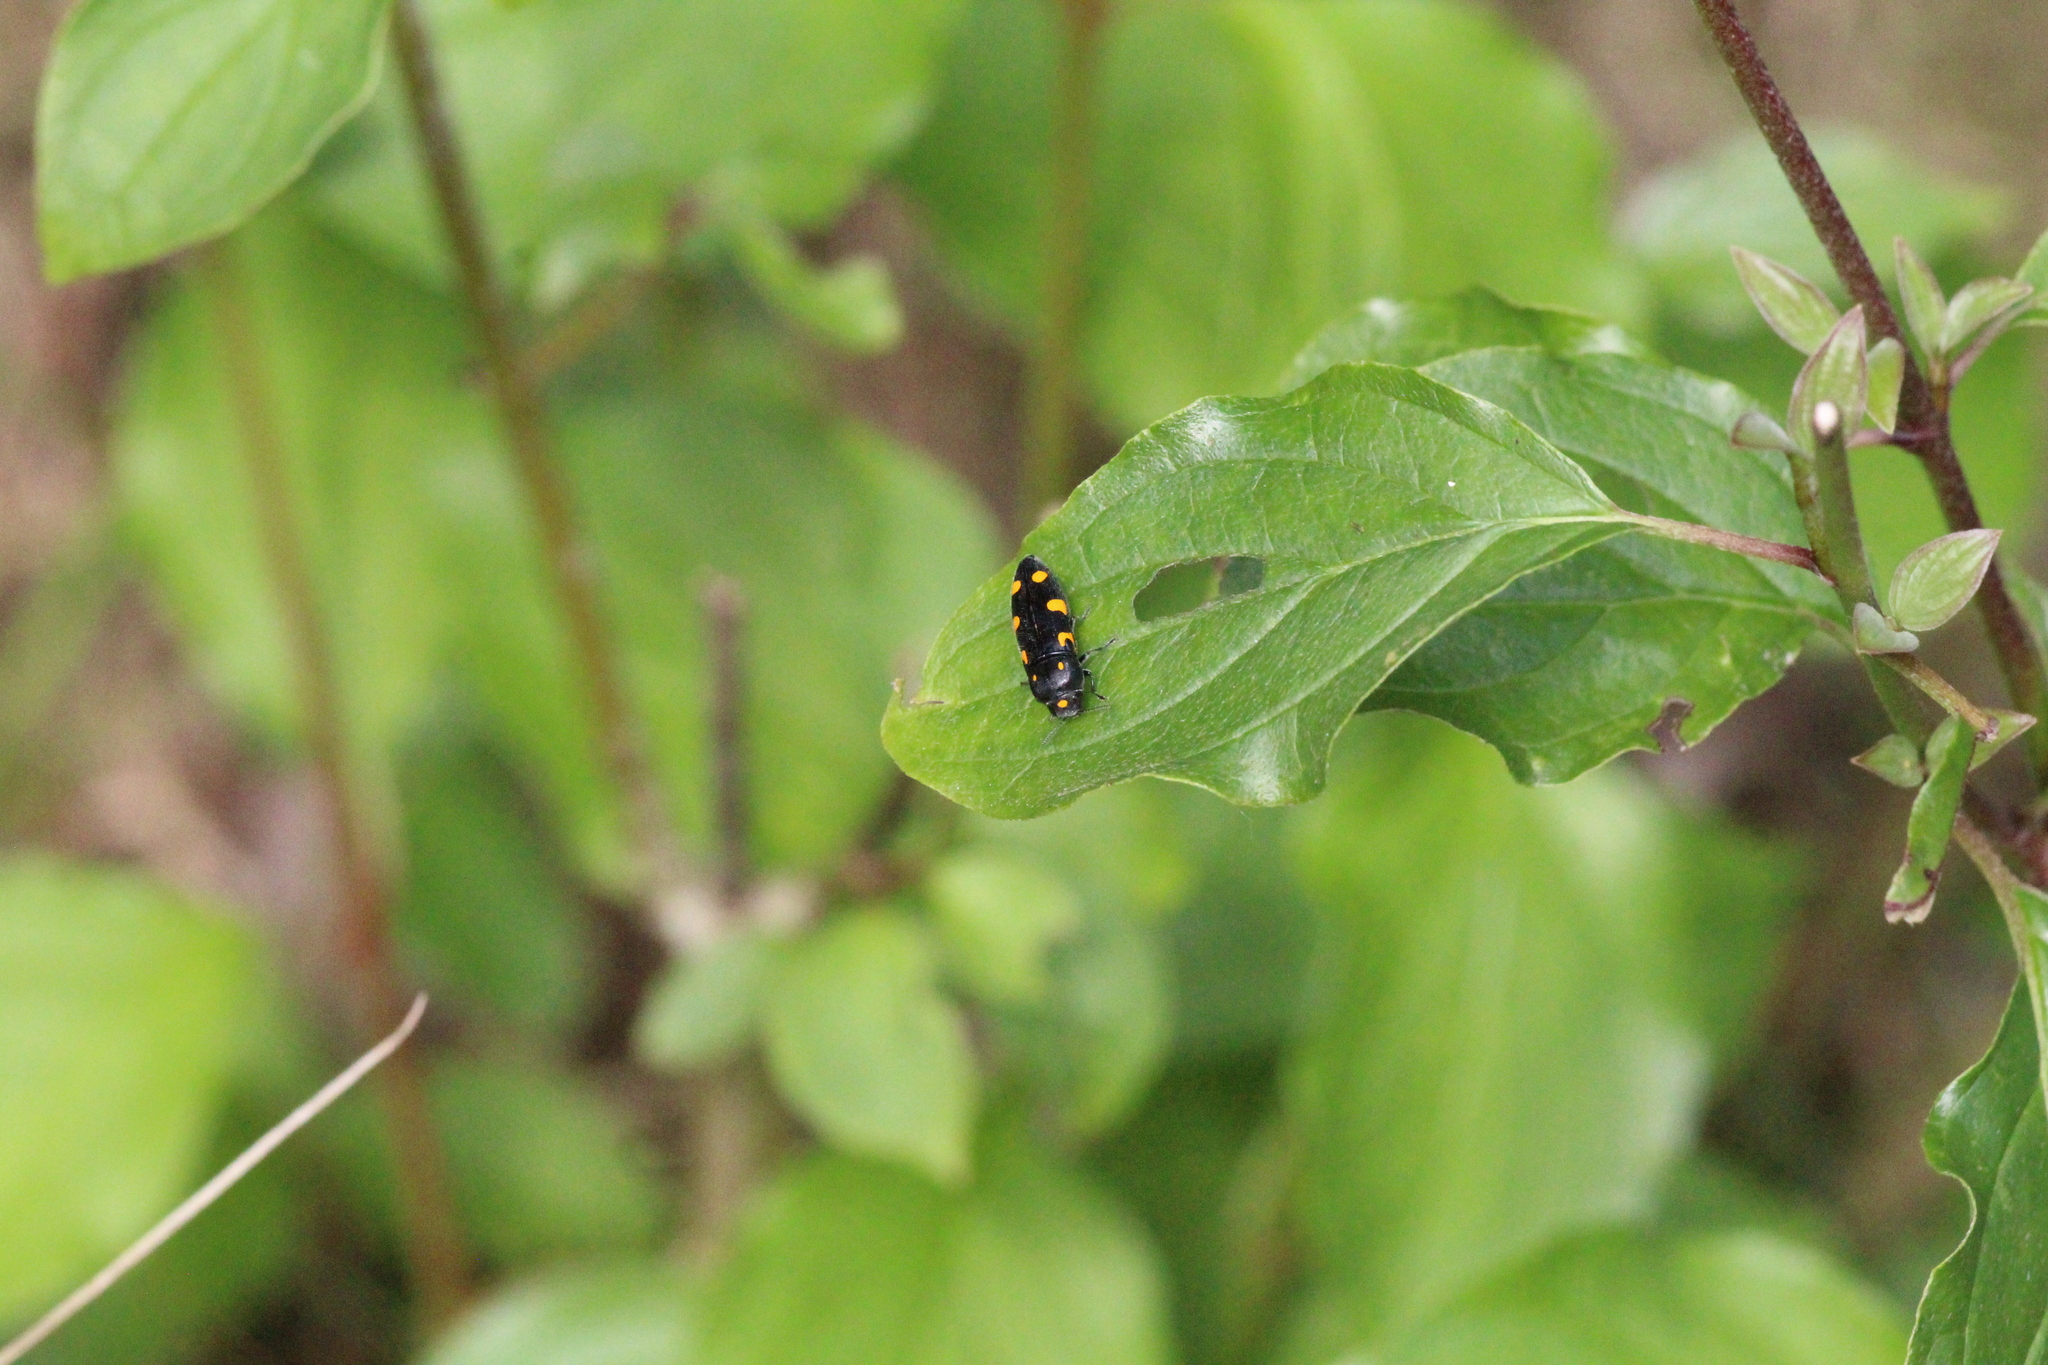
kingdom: Animalia
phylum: Arthropoda
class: Insecta
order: Coleoptera
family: Buprestidae
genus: Ptosima
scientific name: Ptosima undecimmaculata
